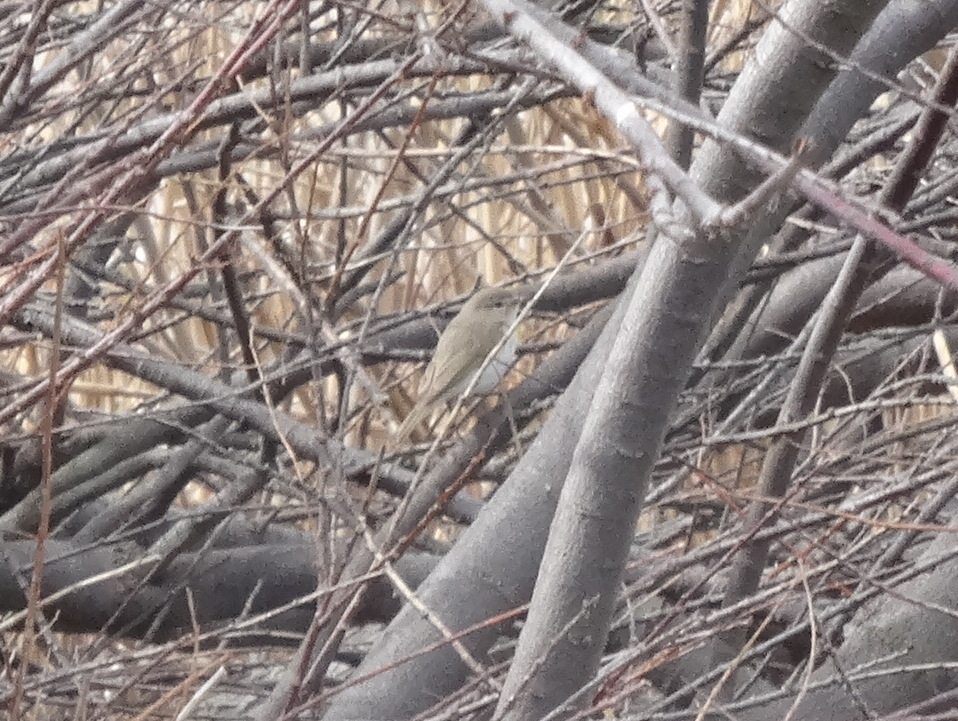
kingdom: Animalia
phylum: Chordata
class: Aves
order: Passeriformes
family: Phylloscopidae
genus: Phylloscopus
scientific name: Phylloscopus collybita
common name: Common chiffchaff
